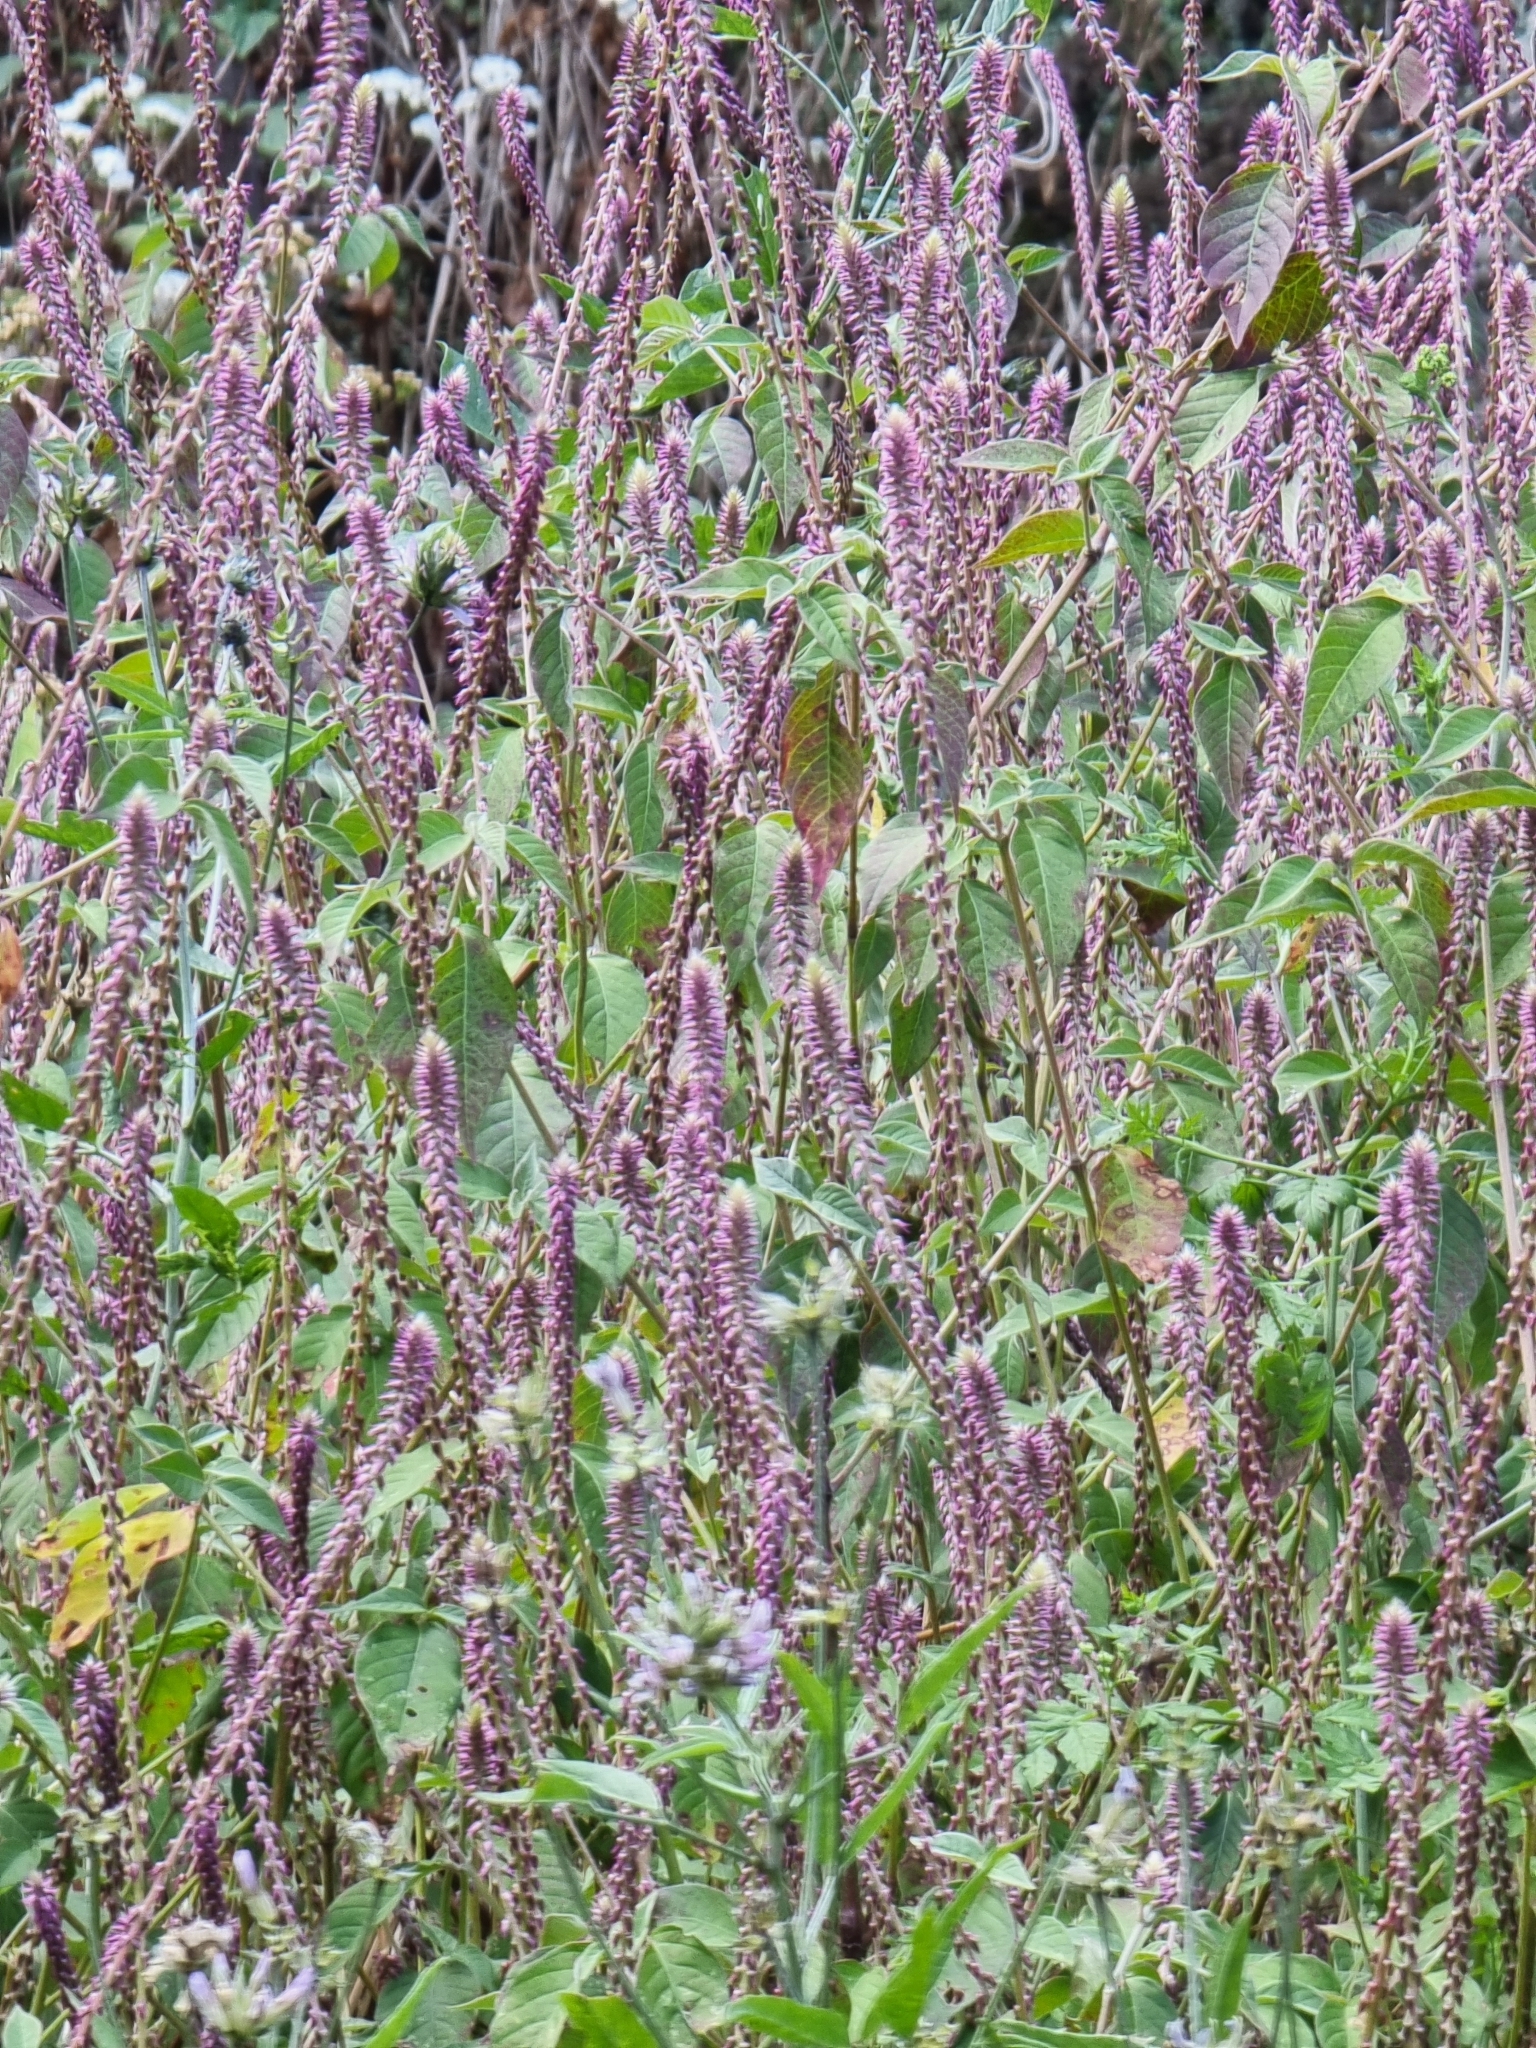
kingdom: Plantae
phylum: Tracheophyta
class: Magnoliopsida
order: Caryophyllales
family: Amaranthaceae
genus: Achyranthes
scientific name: Achyranthes aspera
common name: Devil's horsewhip
